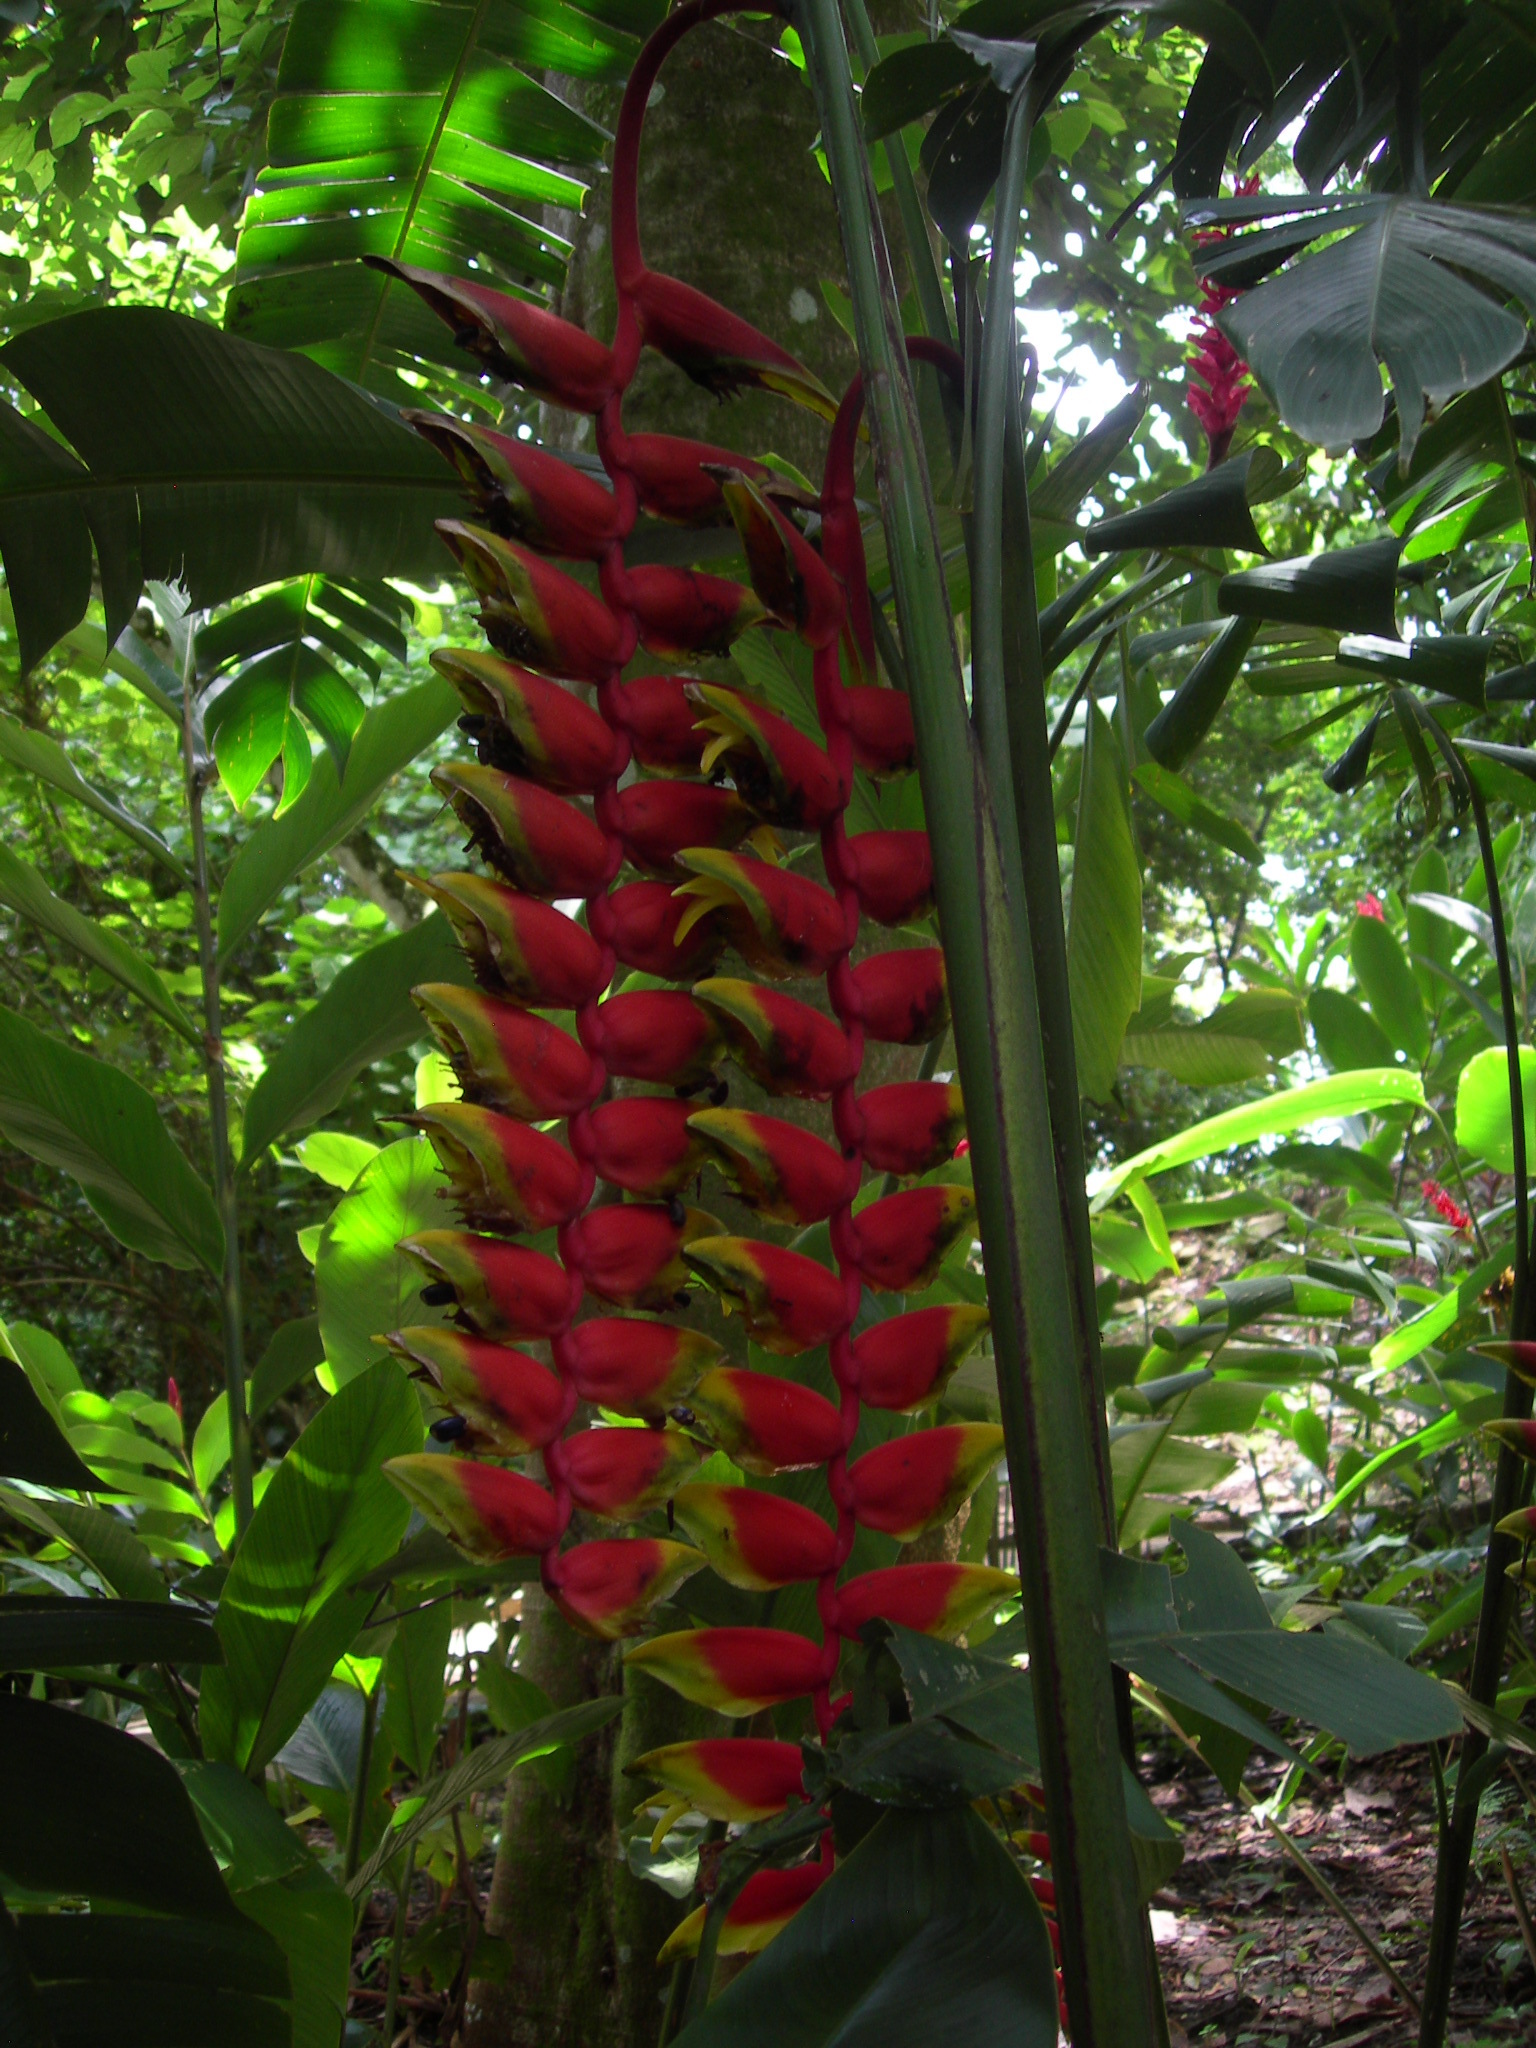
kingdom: Plantae
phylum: Tracheophyta
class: Liliopsida
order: Zingiberales
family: Heliconiaceae
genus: Heliconia
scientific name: Heliconia rostrata
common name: False bird of paradise
